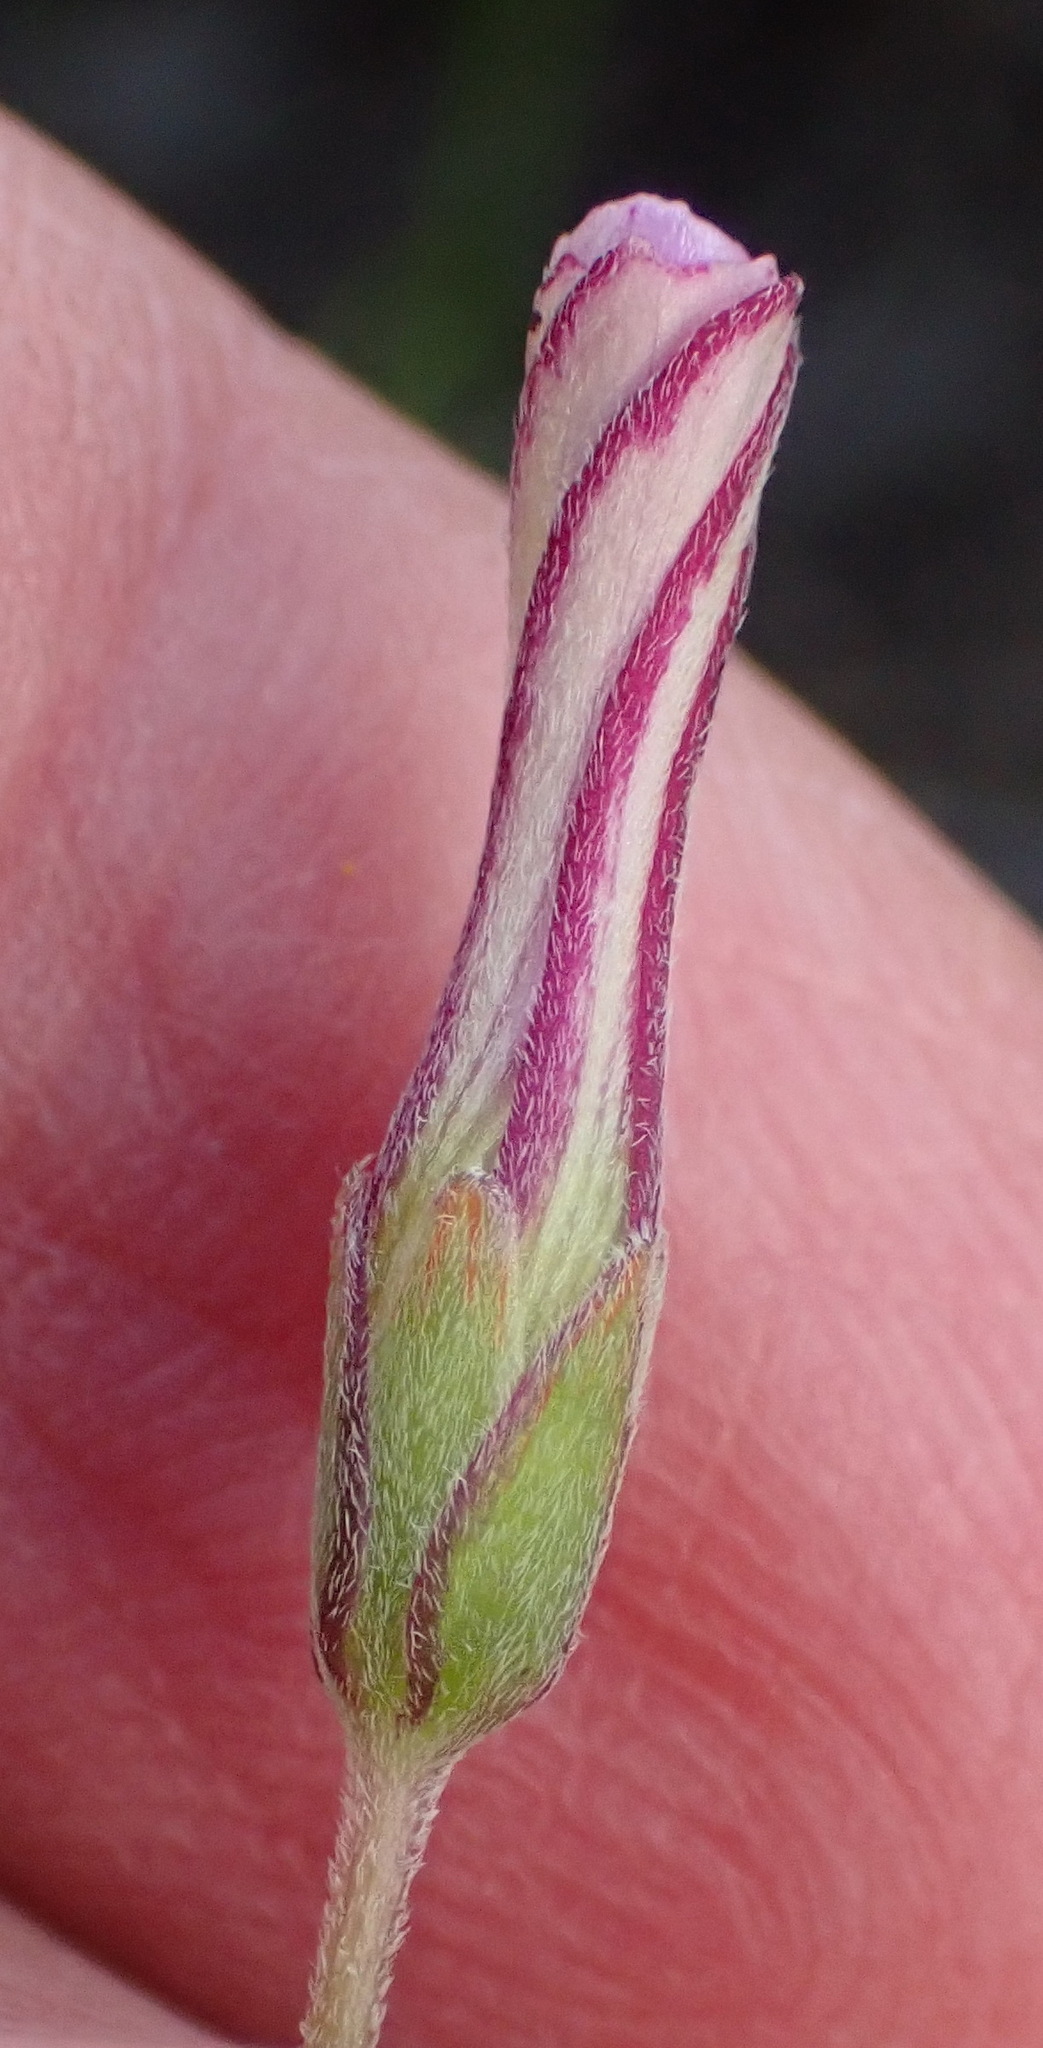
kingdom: Plantae
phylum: Tracheophyta
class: Magnoliopsida
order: Oxalidales
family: Oxalidaceae
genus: Oxalis
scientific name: Oxalis bifida
